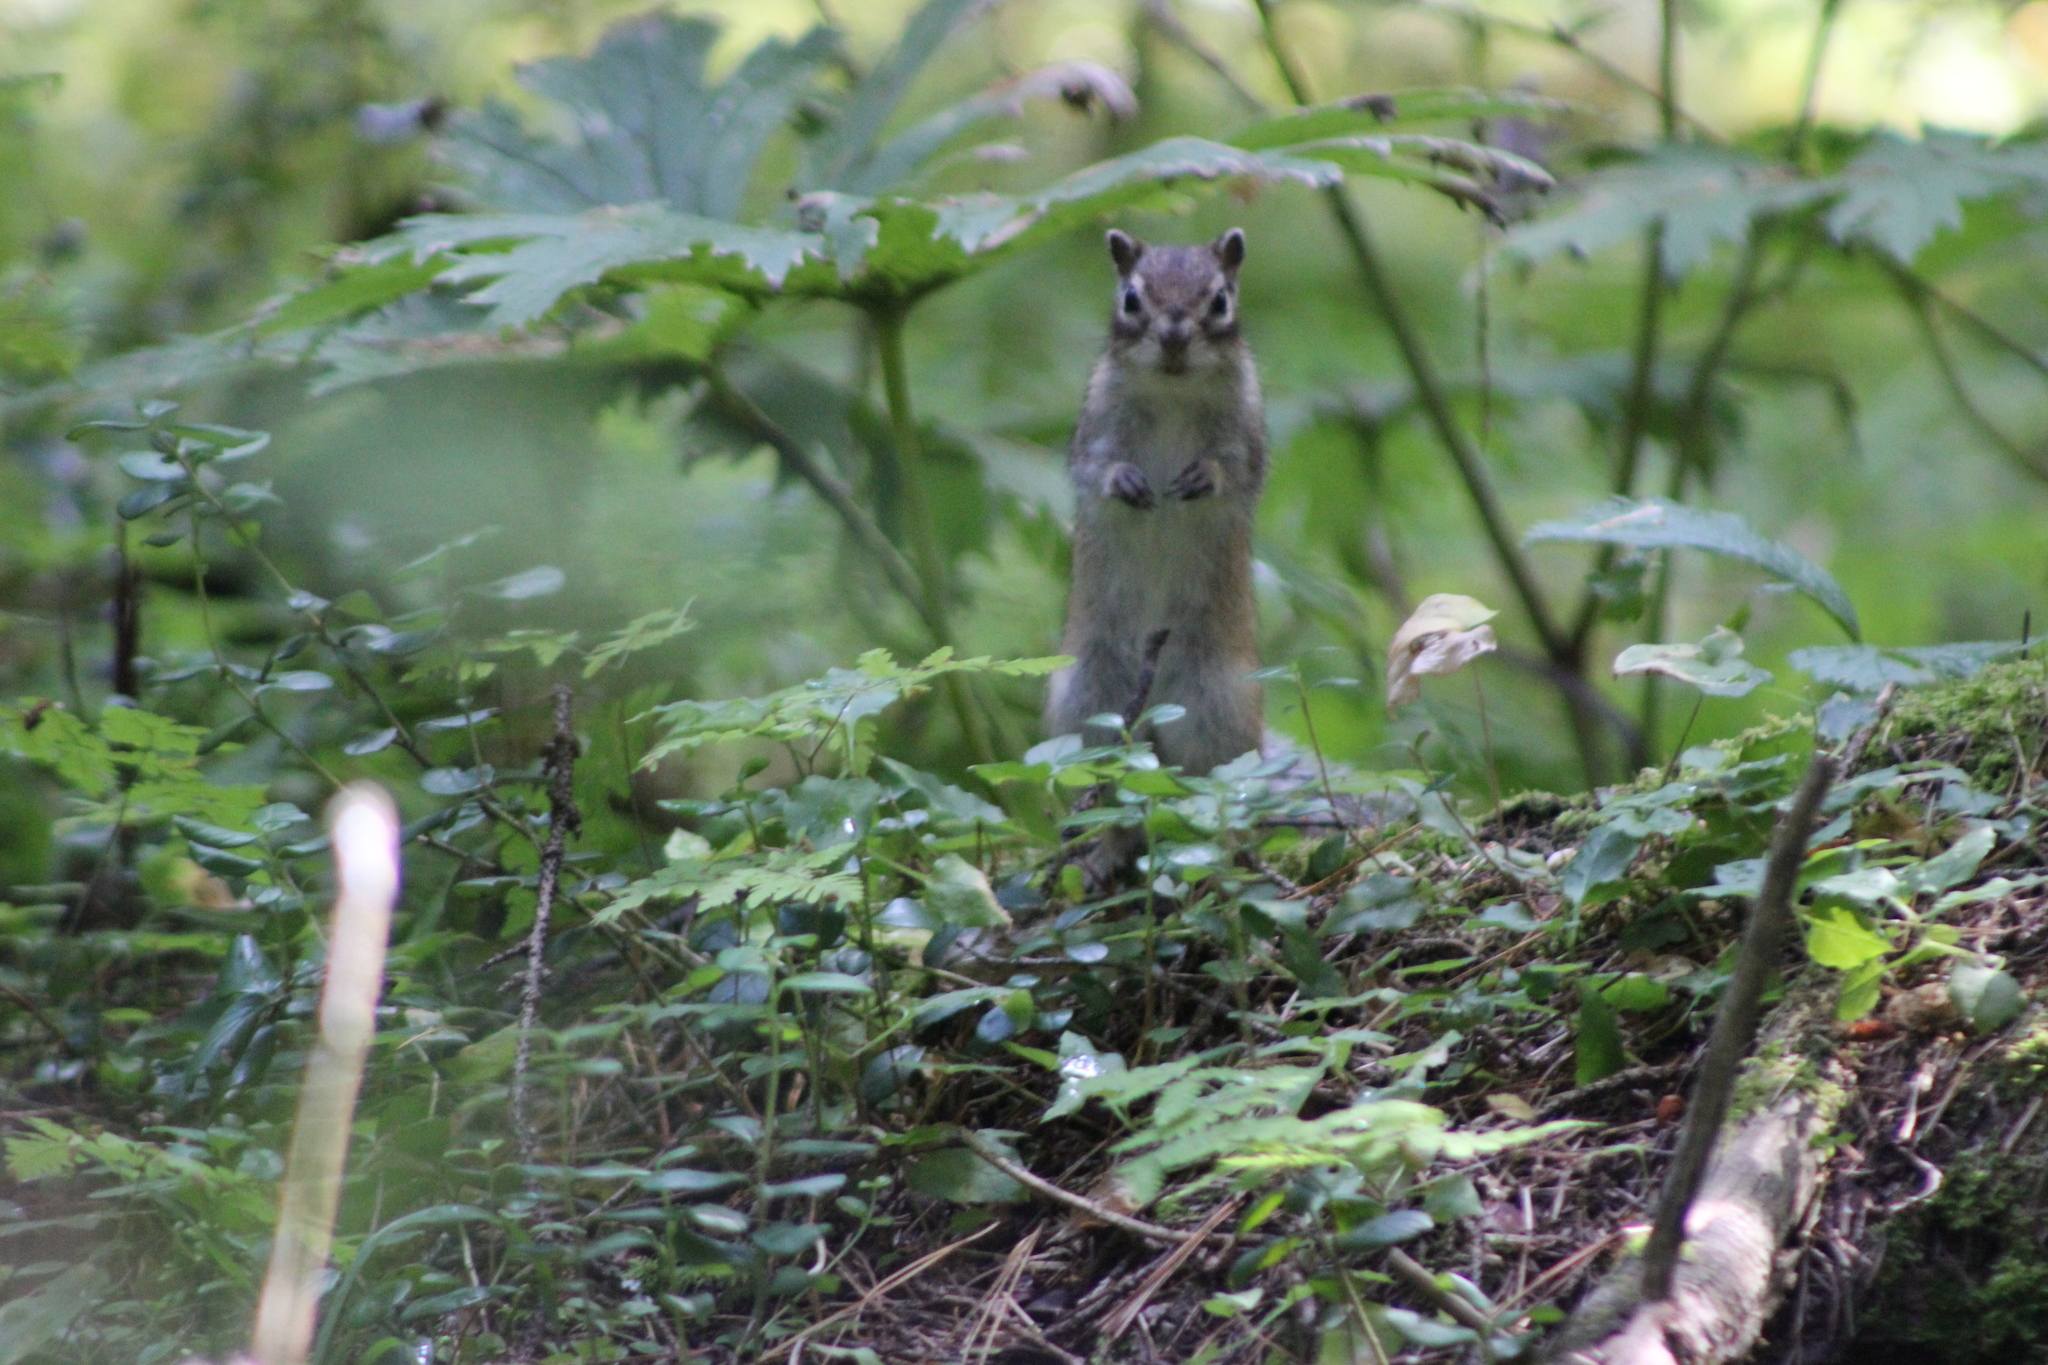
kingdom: Animalia
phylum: Chordata
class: Mammalia
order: Rodentia
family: Sciuridae
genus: Tamias
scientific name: Tamias sibiricus
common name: Siberian chipmunk
